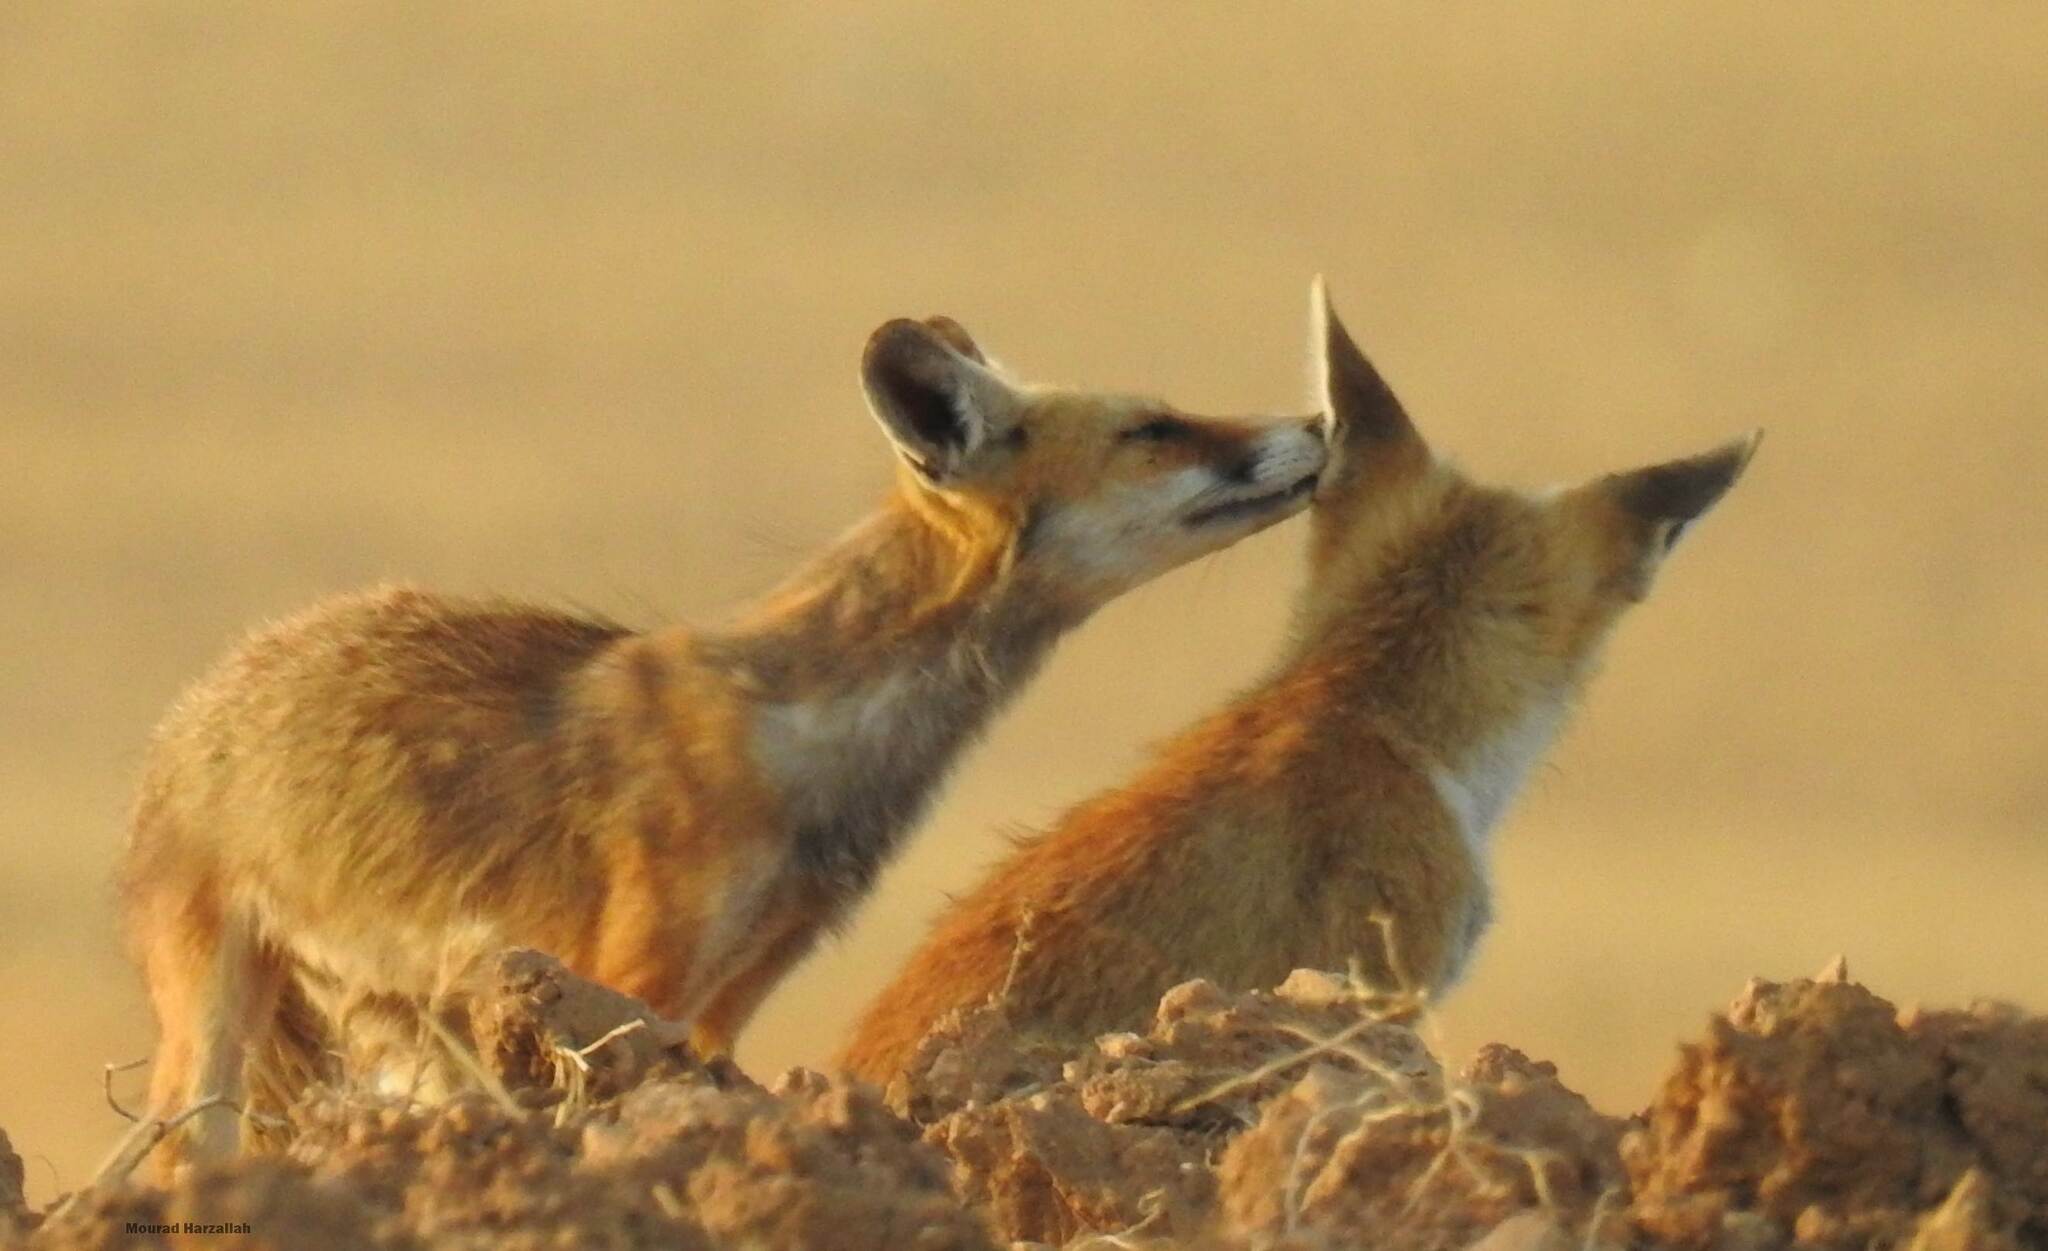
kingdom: Animalia
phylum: Chordata
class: Mammalia
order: Carnivora
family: Canidae
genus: Vulpes
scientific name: Vulpes vulpes
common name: Red fox
